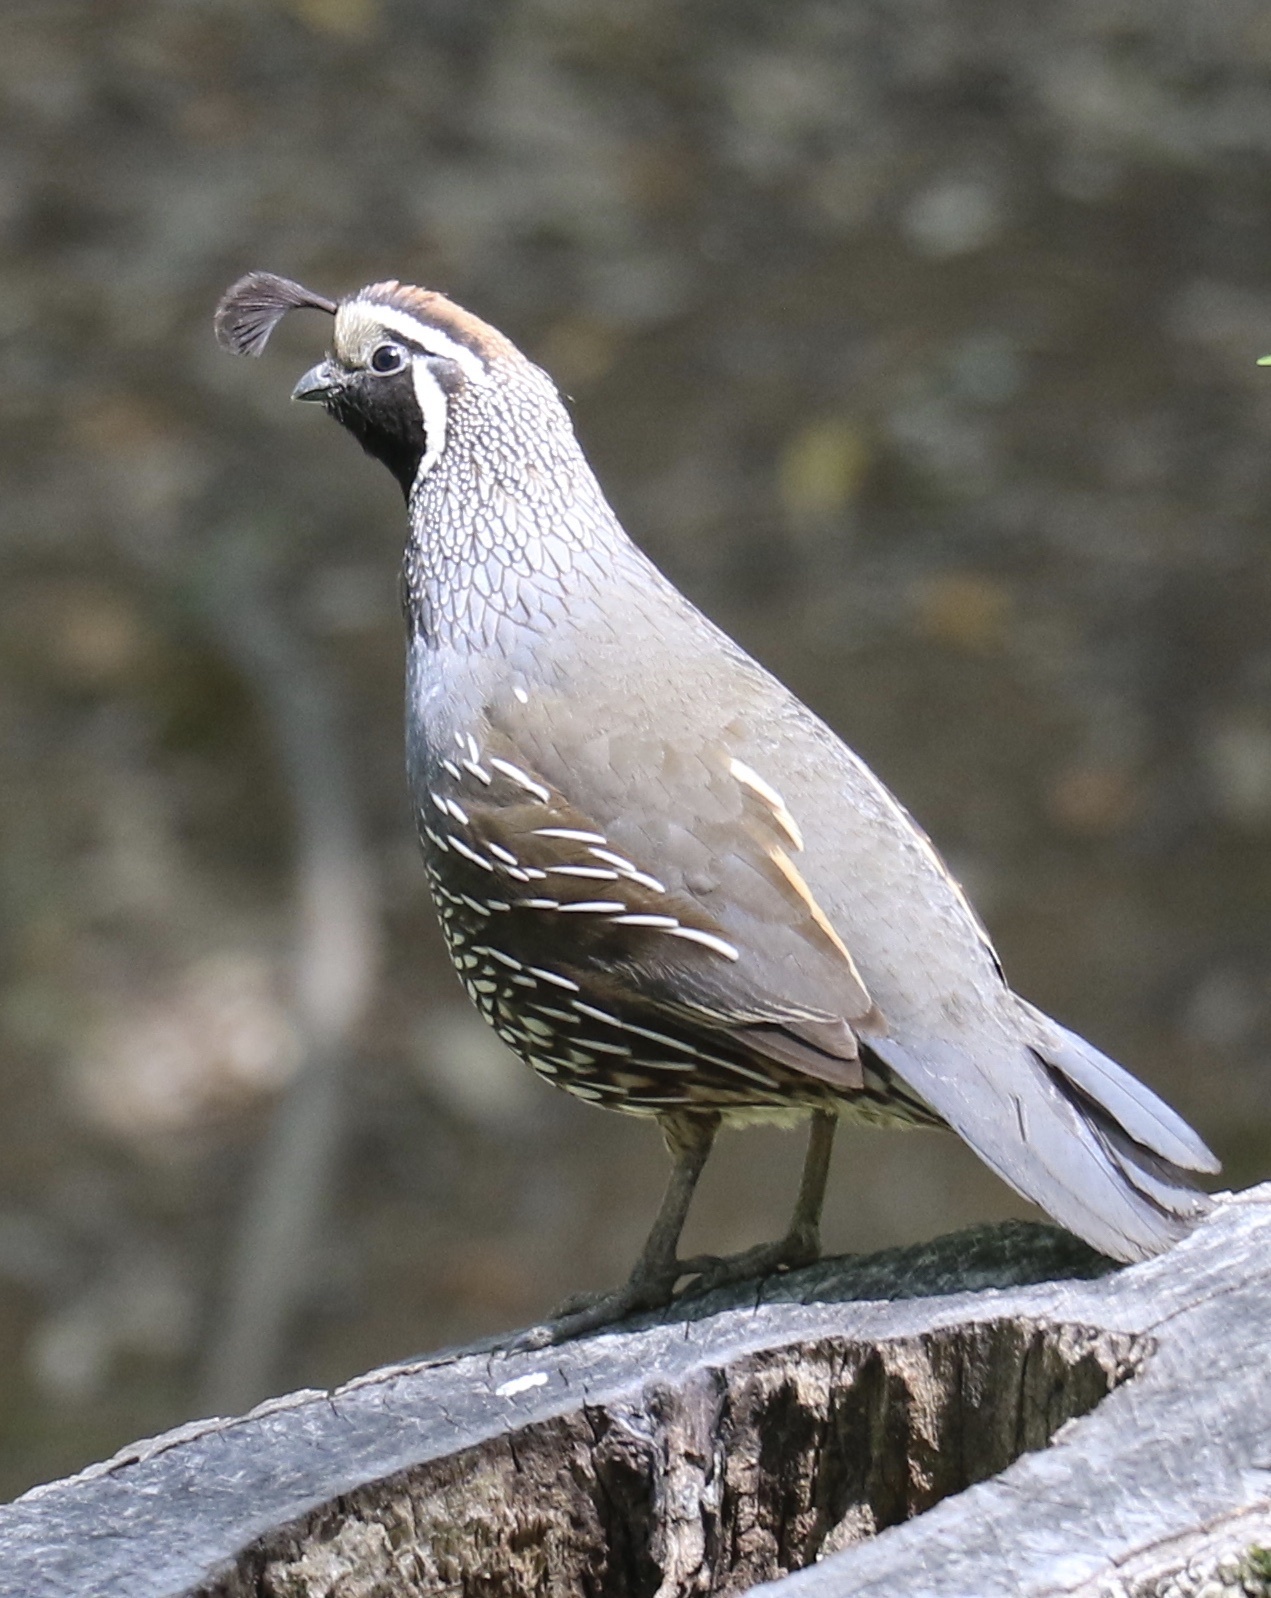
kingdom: Animalia
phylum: Chordata
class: Aves
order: Galliformes
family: Odontophoridae
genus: Callipepla
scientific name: Callipepla californica
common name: California quail
